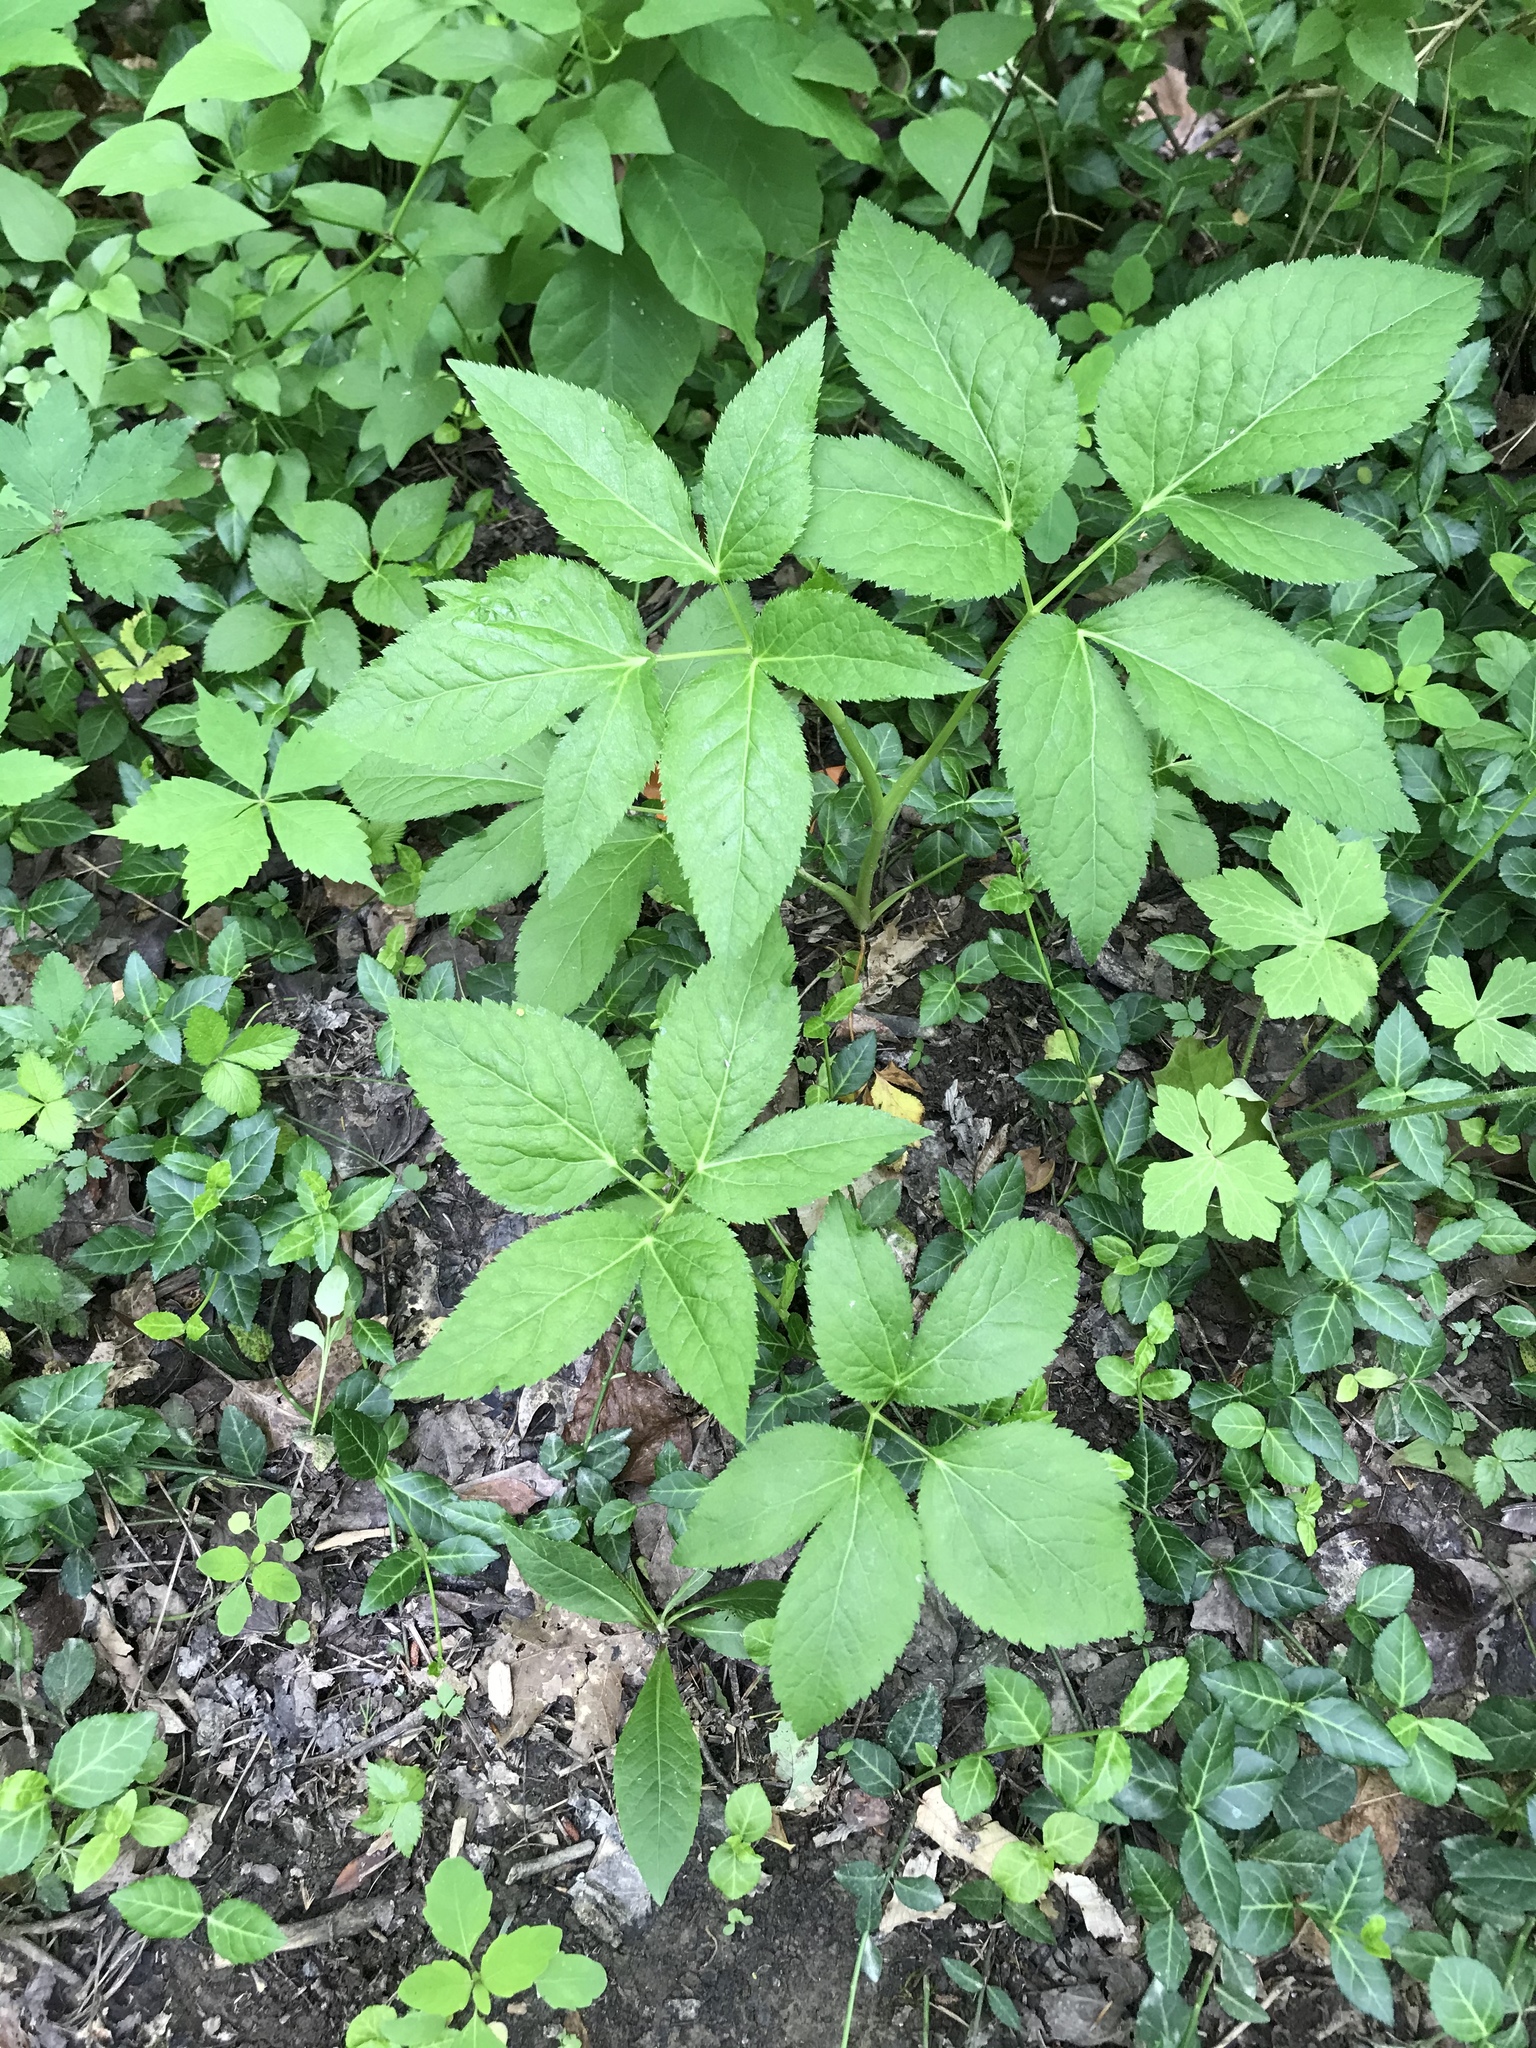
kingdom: Plantae
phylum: Tracheophyta
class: Magnoliopsida
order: Apiales
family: Apiaceae
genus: Cryptotaenia
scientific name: Cryptotaenia canadensis
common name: Honewort
